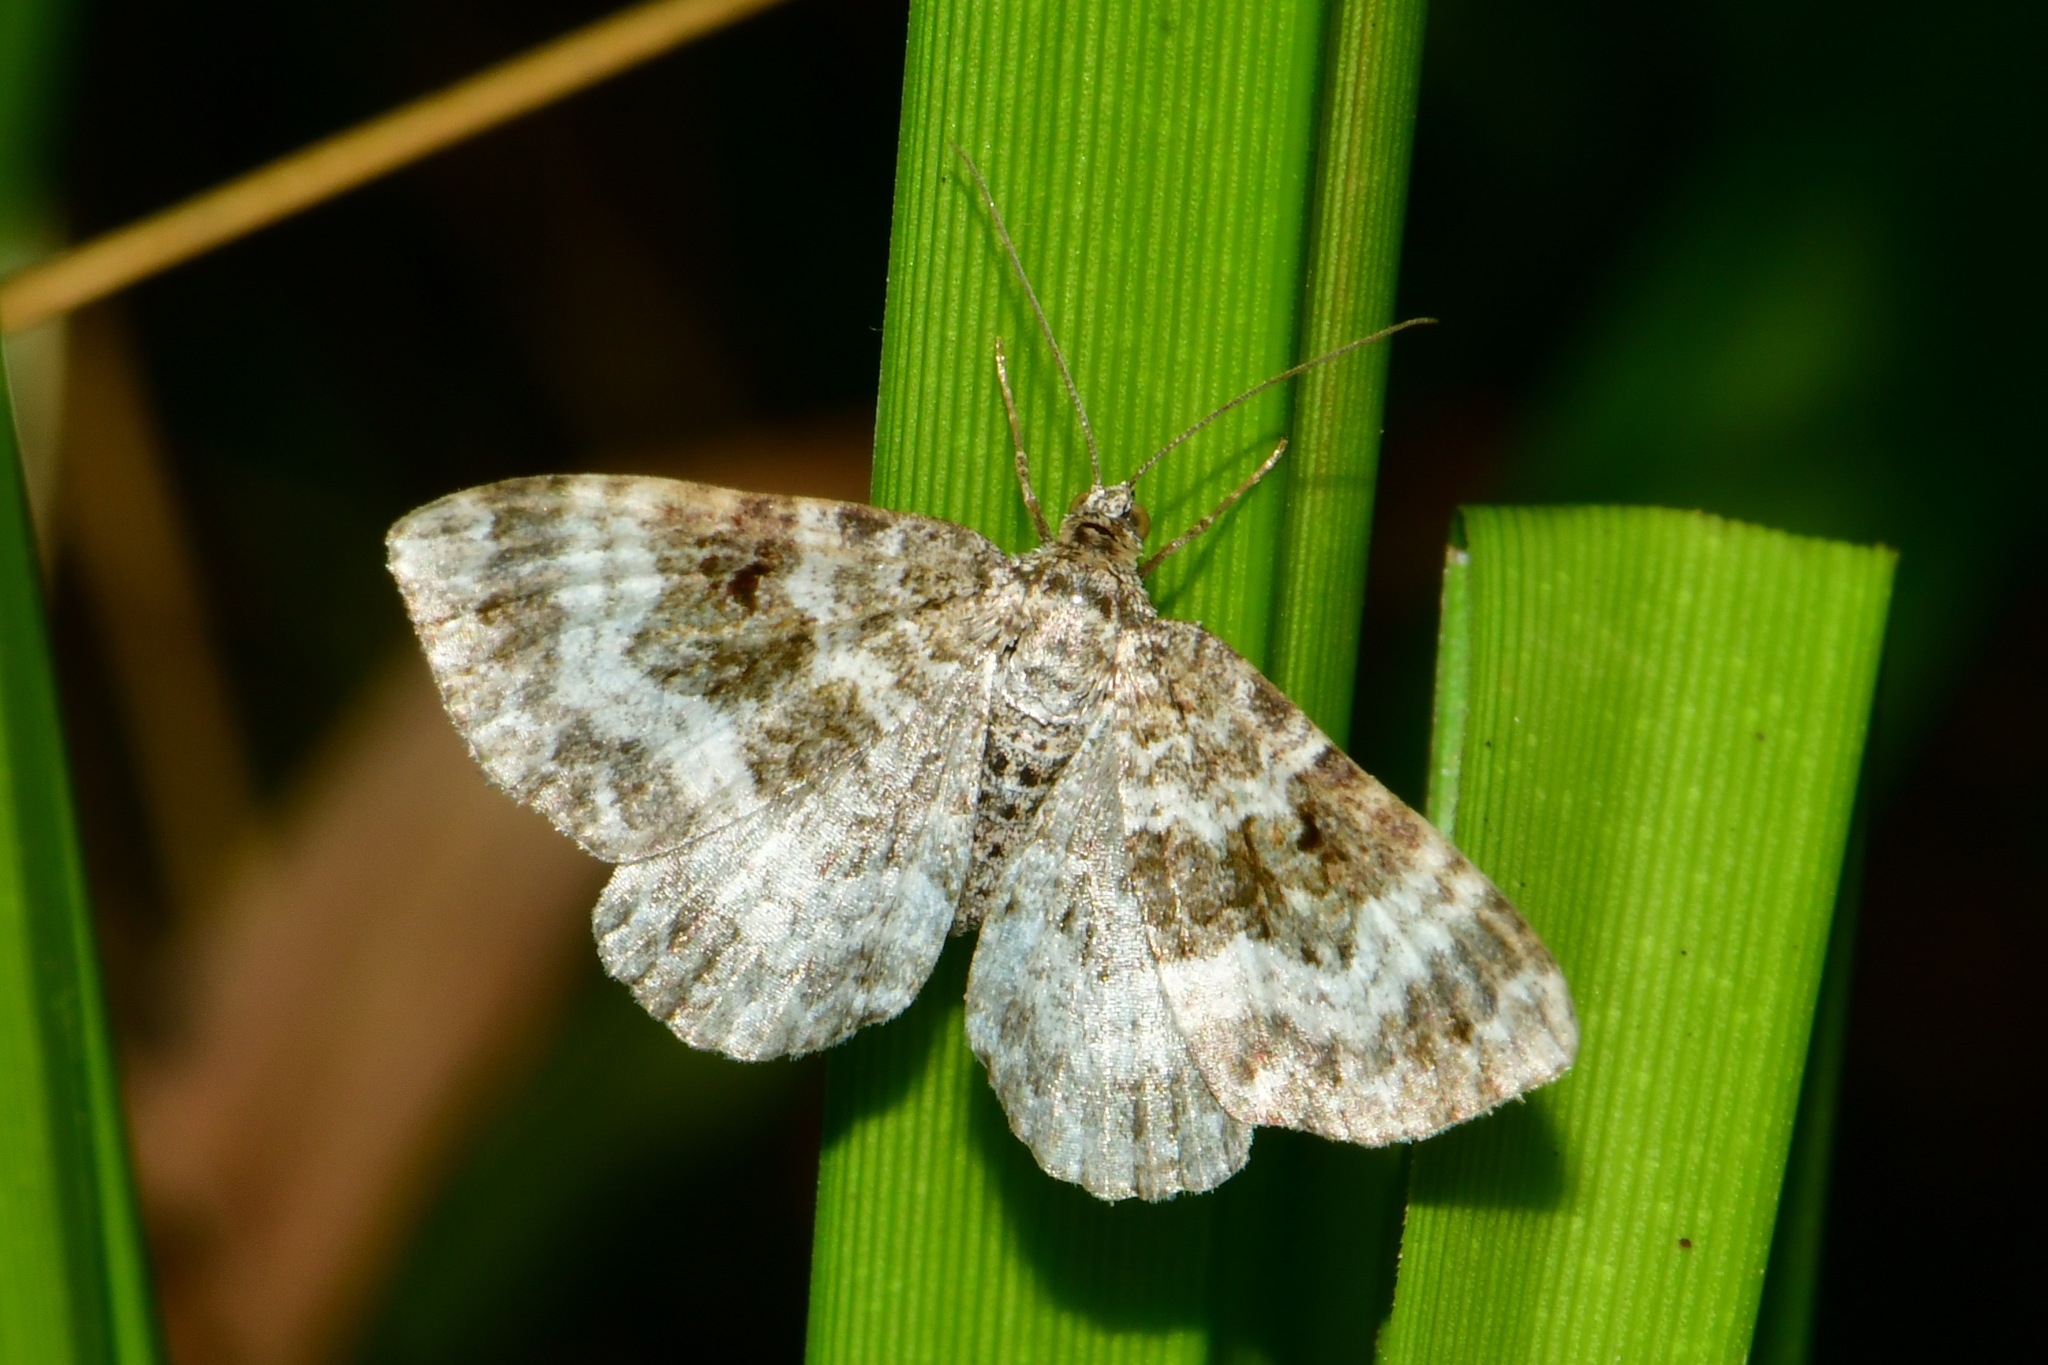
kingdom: Animalia
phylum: Arthropoda
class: Insecta
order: Lepidoptera
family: Geometridae
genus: Epirrhoe
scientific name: Epirrhoe alternata
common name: Common carpet
